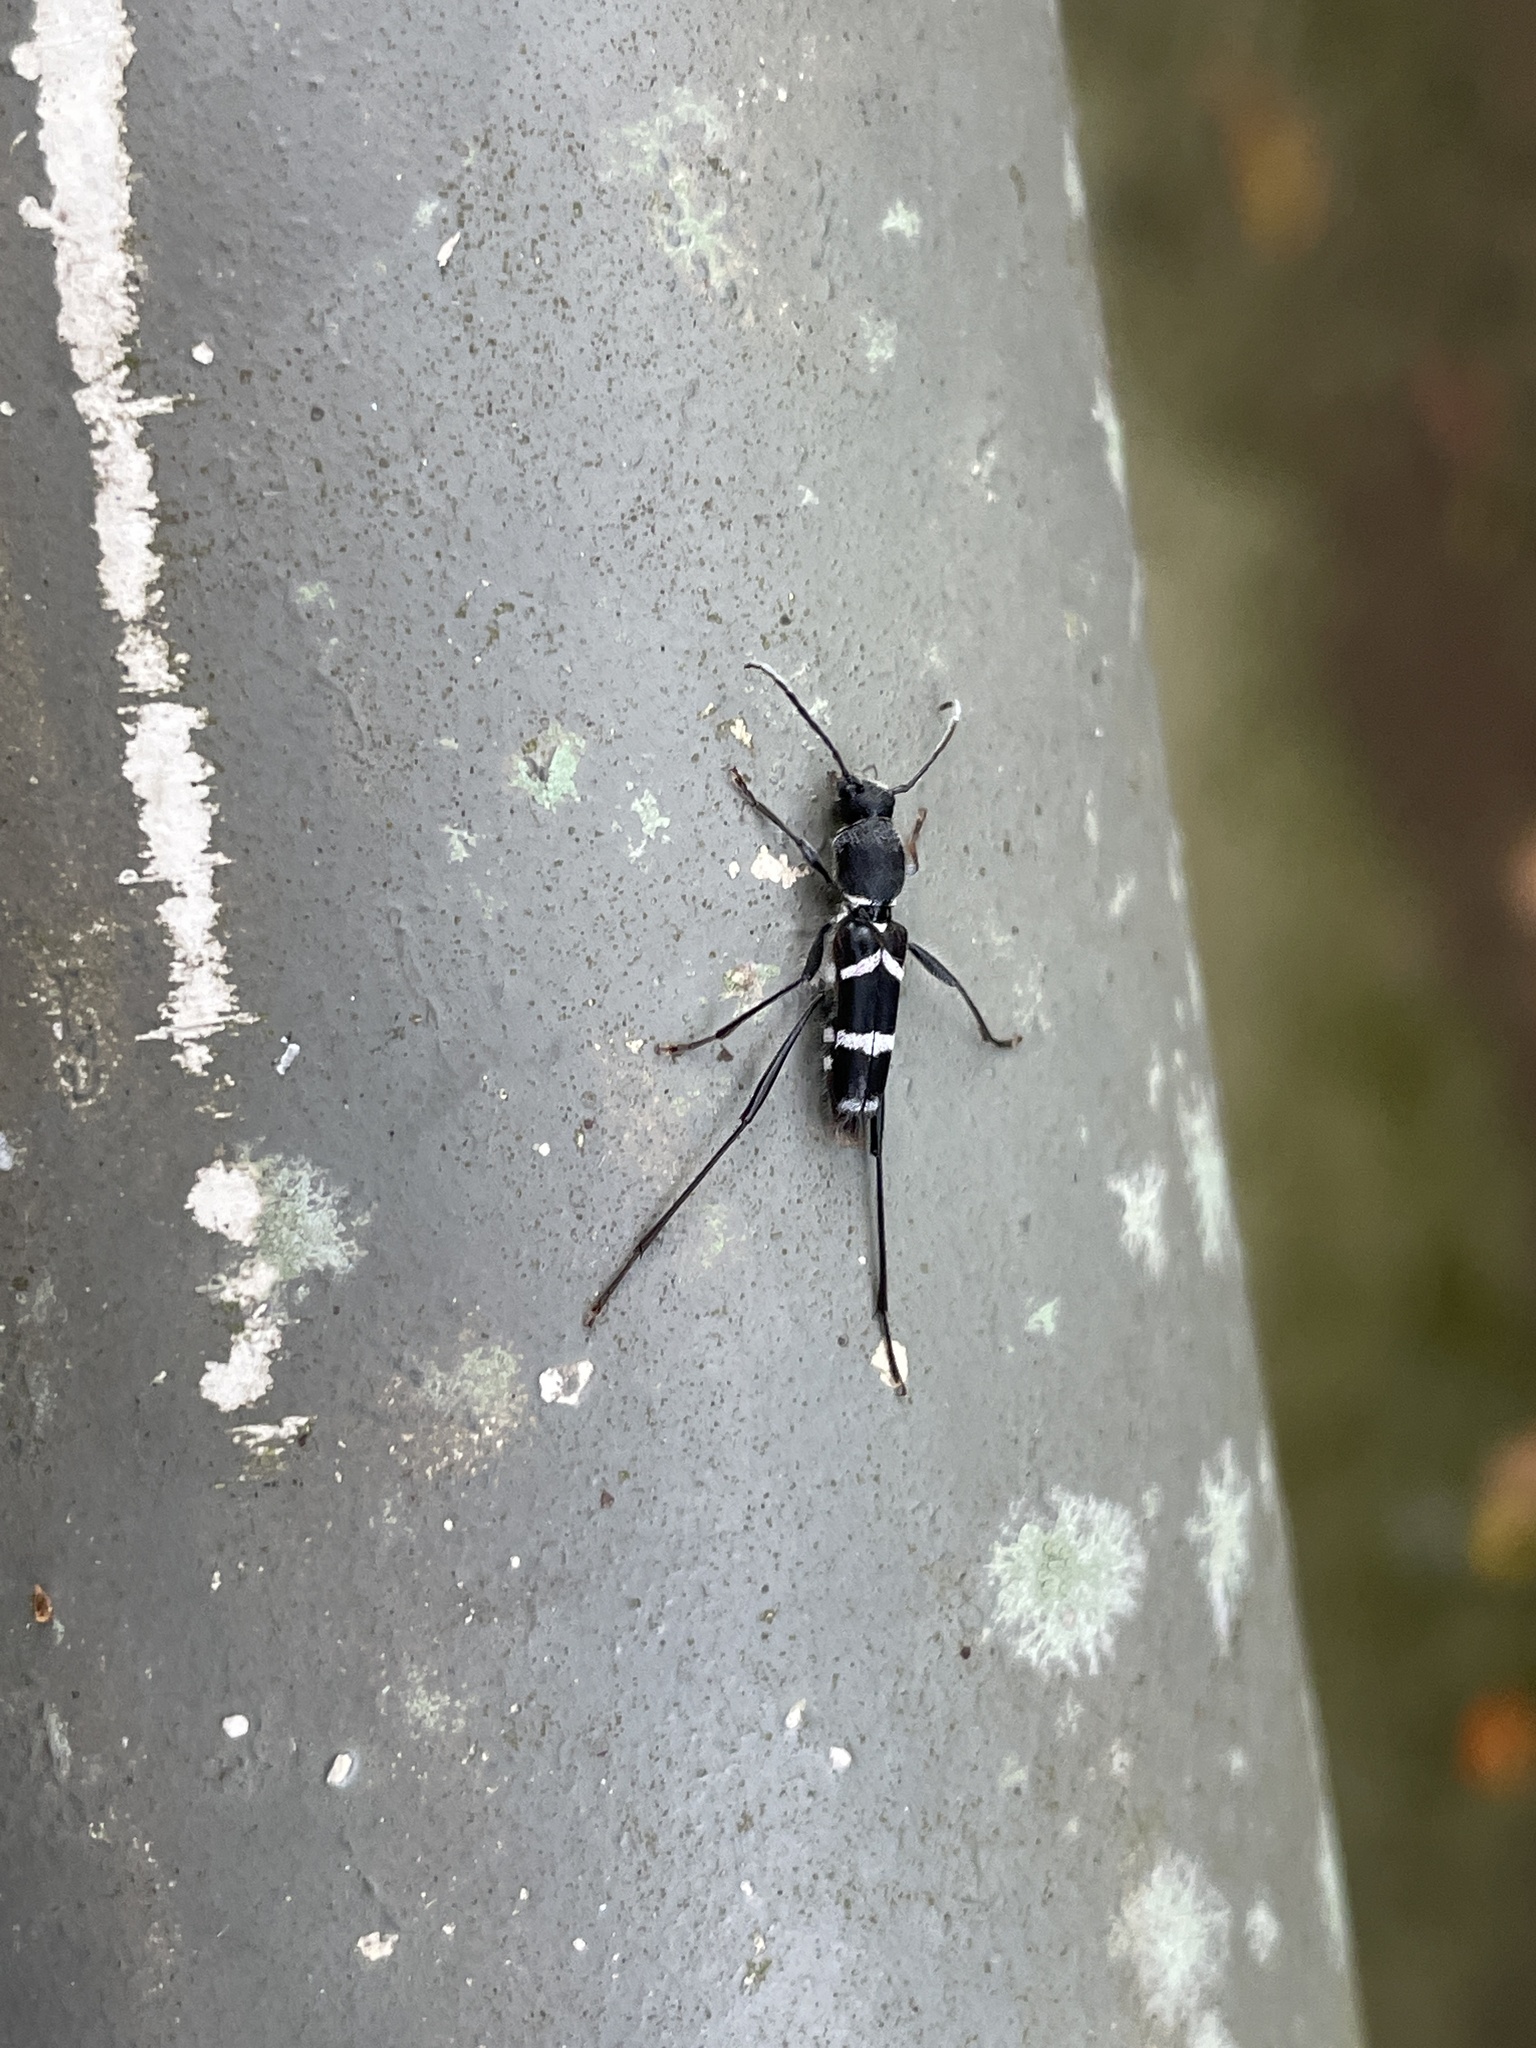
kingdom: Animalia
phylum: Arthropoda
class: Insecta
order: Coleoptera
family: Cerambycidae
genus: Perissus
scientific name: Perissus mimicus
